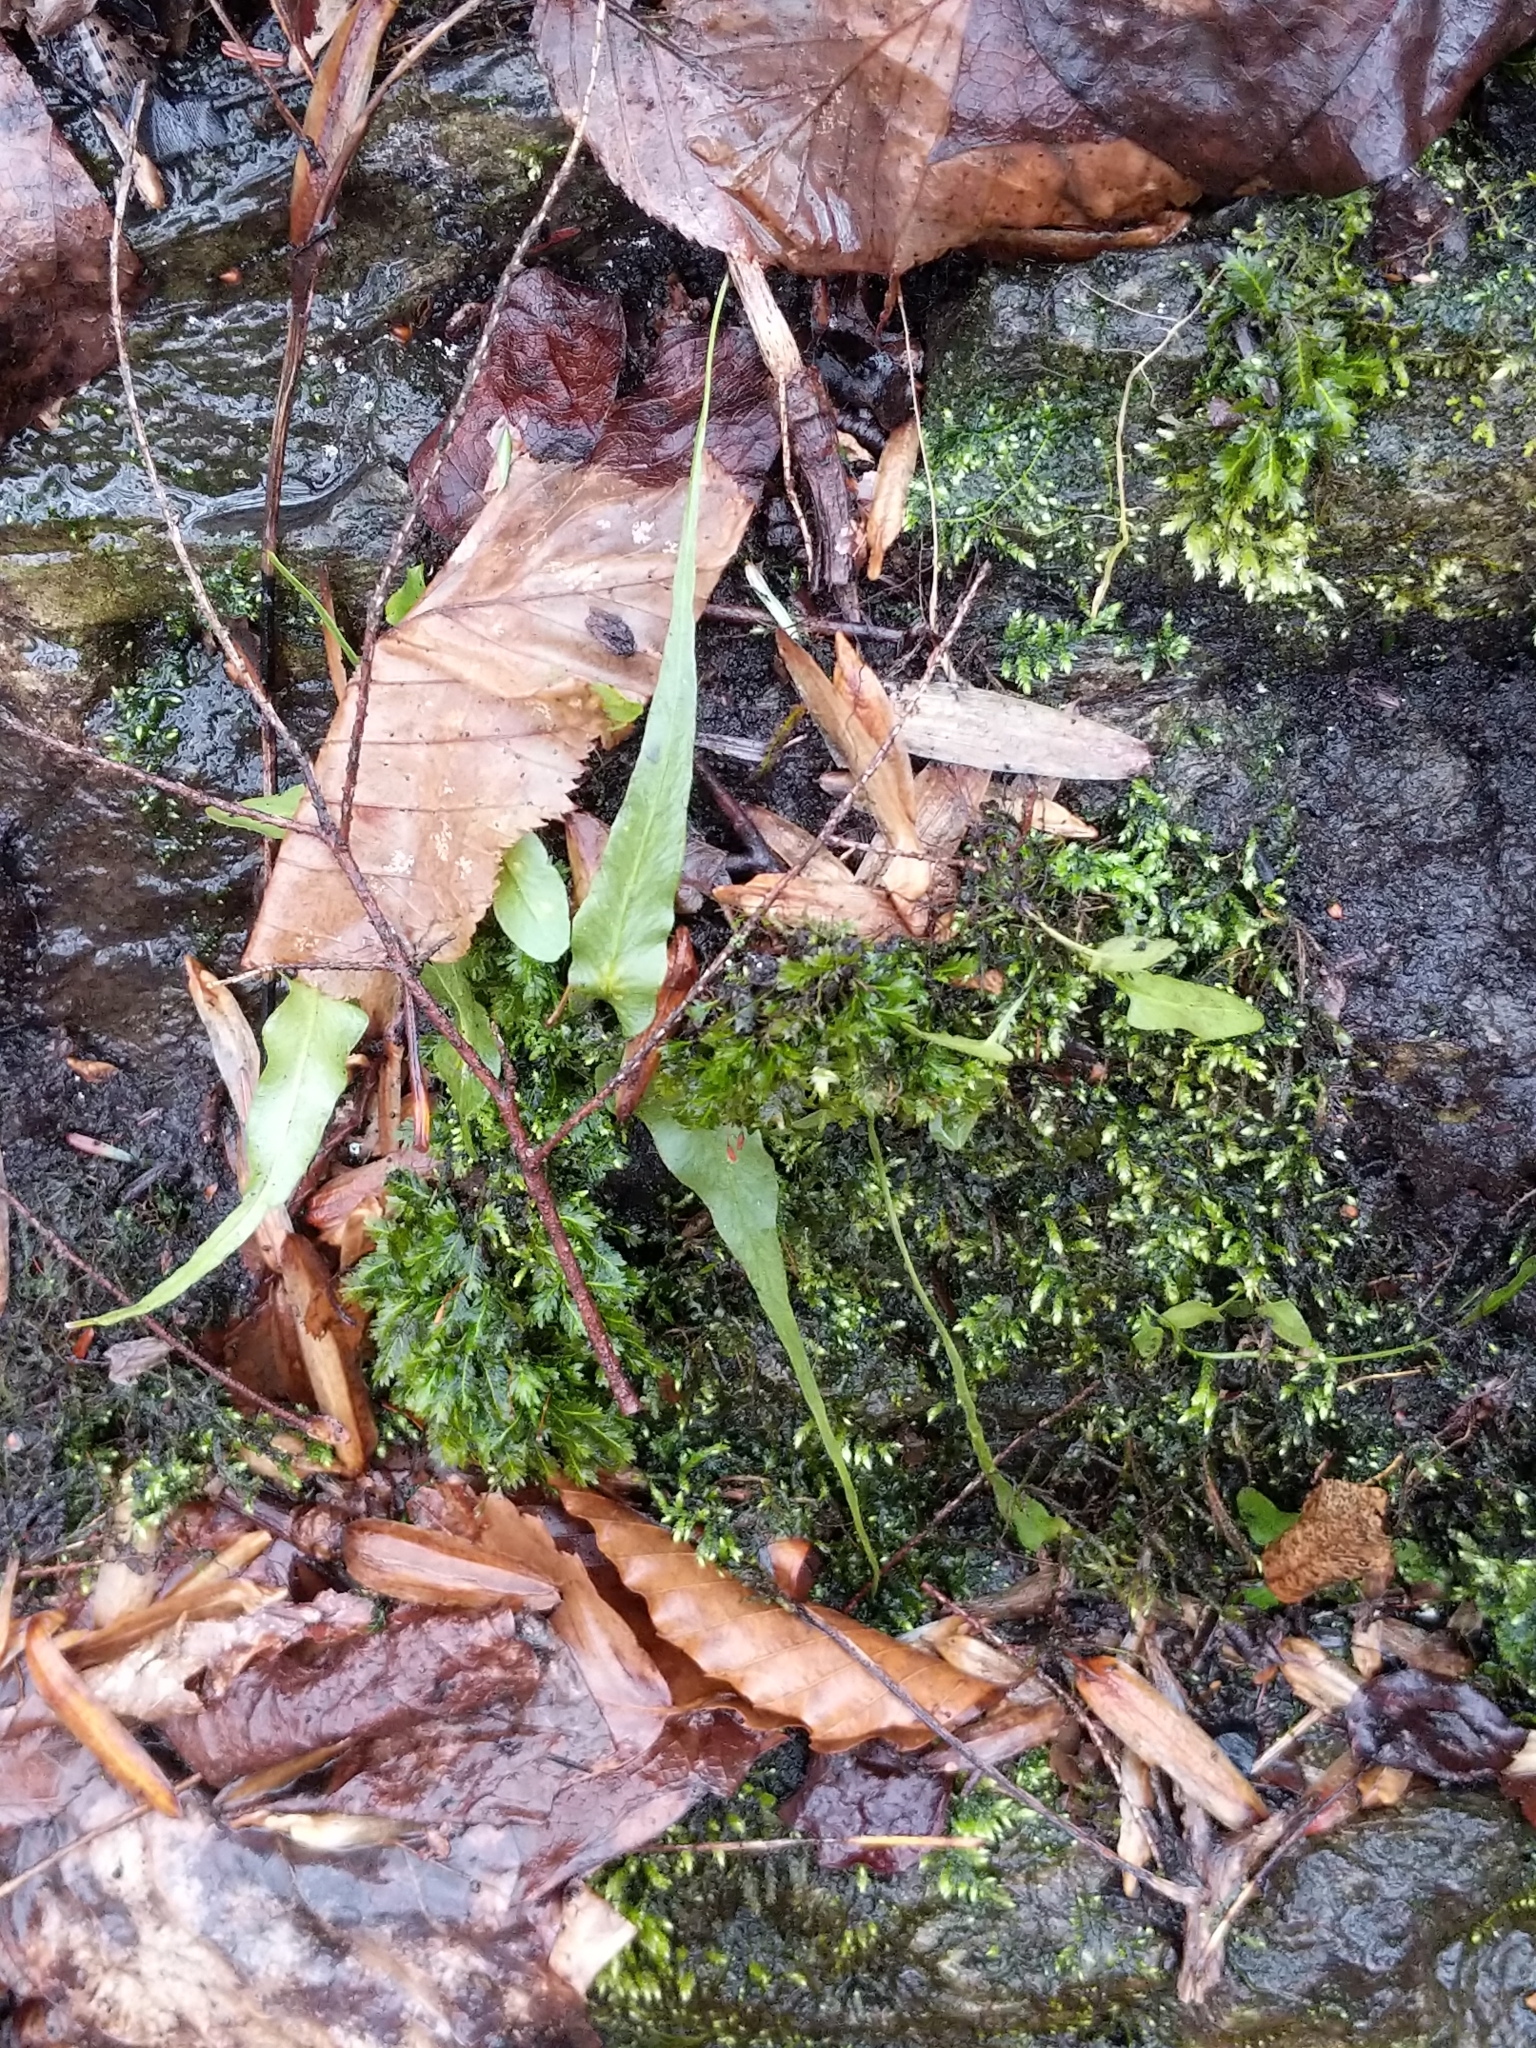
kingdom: Plantae
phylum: Tracheophyta
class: Polypodiopsida
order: Polypodiales
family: Aspleniaceae
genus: Asplenium
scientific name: Asplenium rhizophyllum
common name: Walking fern
